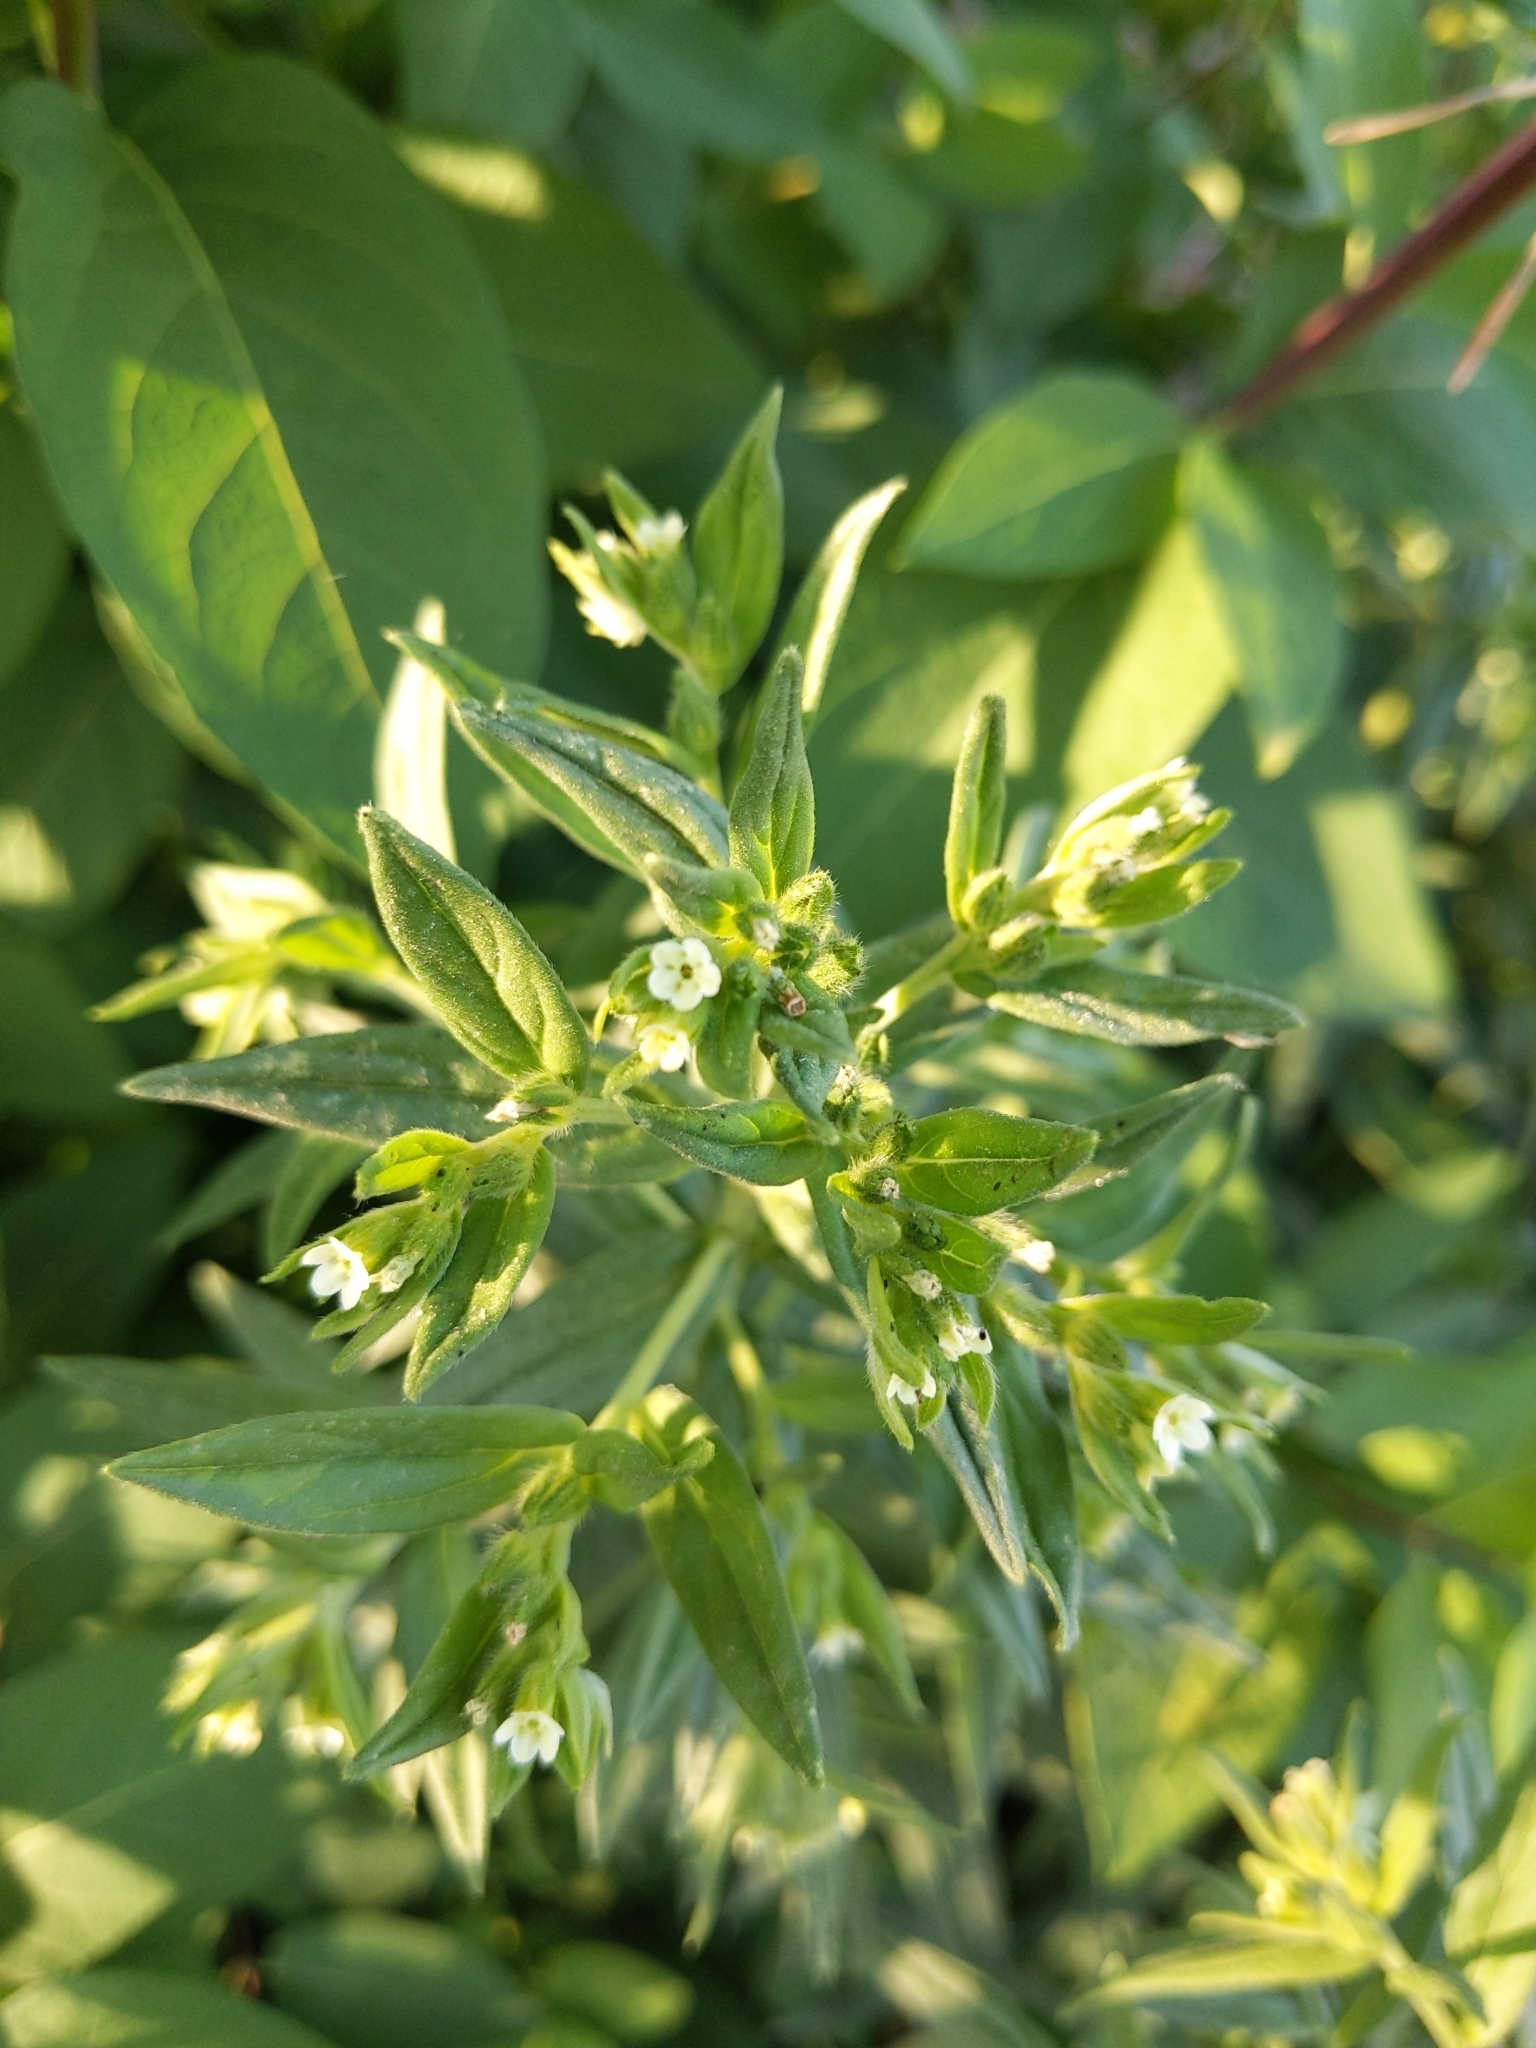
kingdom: Plantae
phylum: Tracheophyta
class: Magnoliopsida
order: Boraginales
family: Boraginaceae
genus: Lithospermum
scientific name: Lithospermum officinale
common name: Common gromwell
